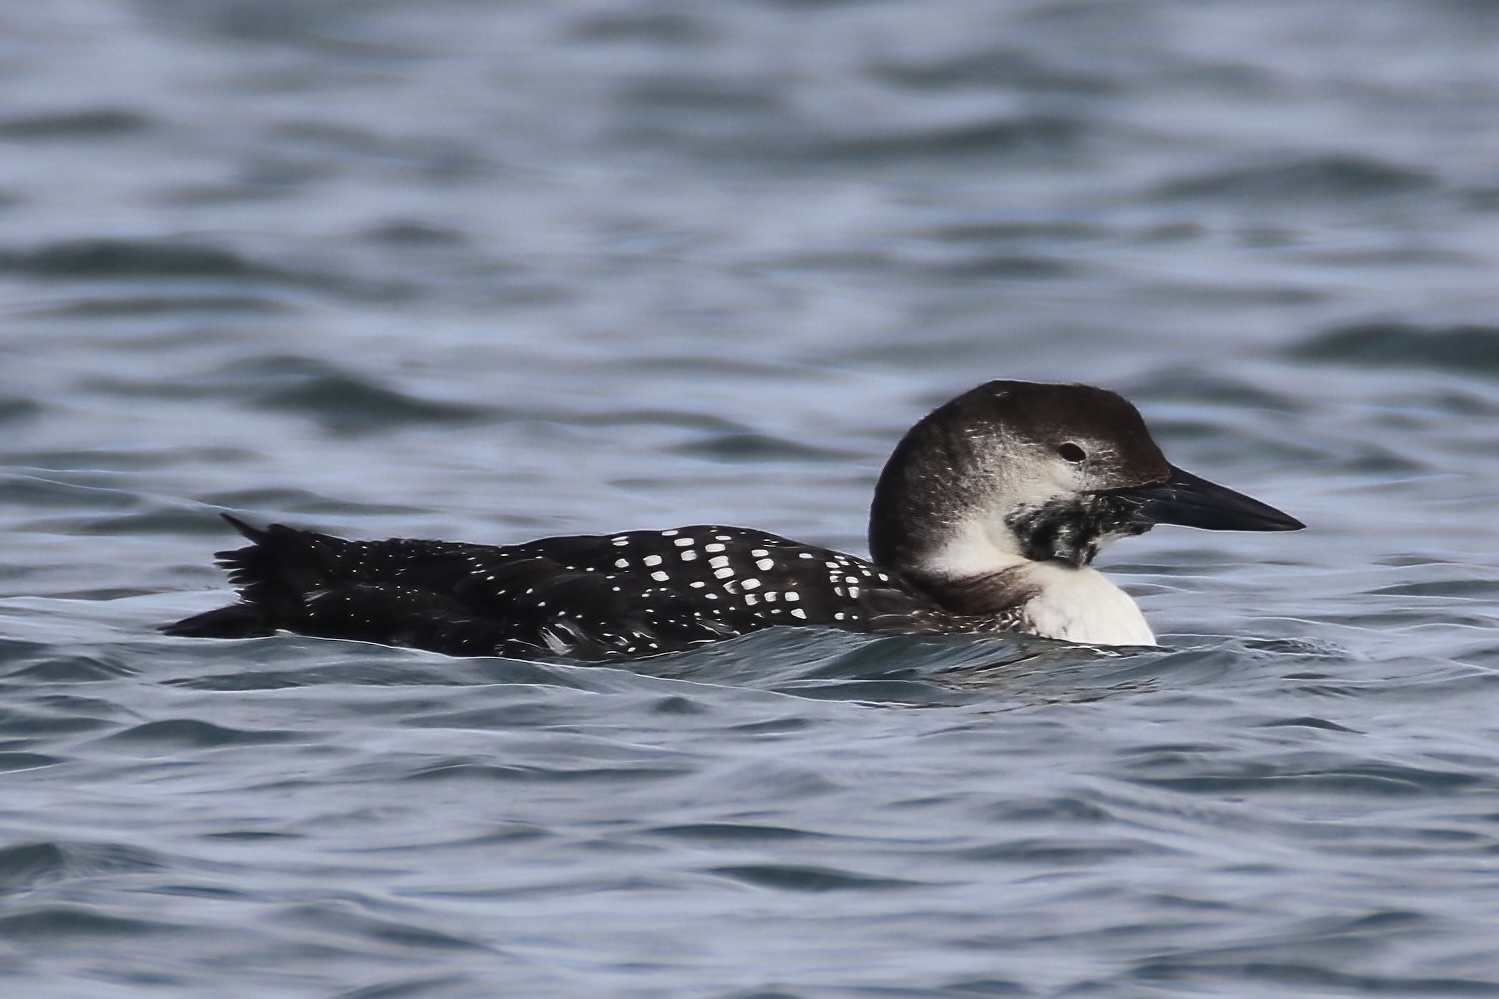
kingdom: Animalia
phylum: Chordata
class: Aves
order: Gaviiformes
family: Gaviidae
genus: Gavia
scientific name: Gavia immer
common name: Common loon
